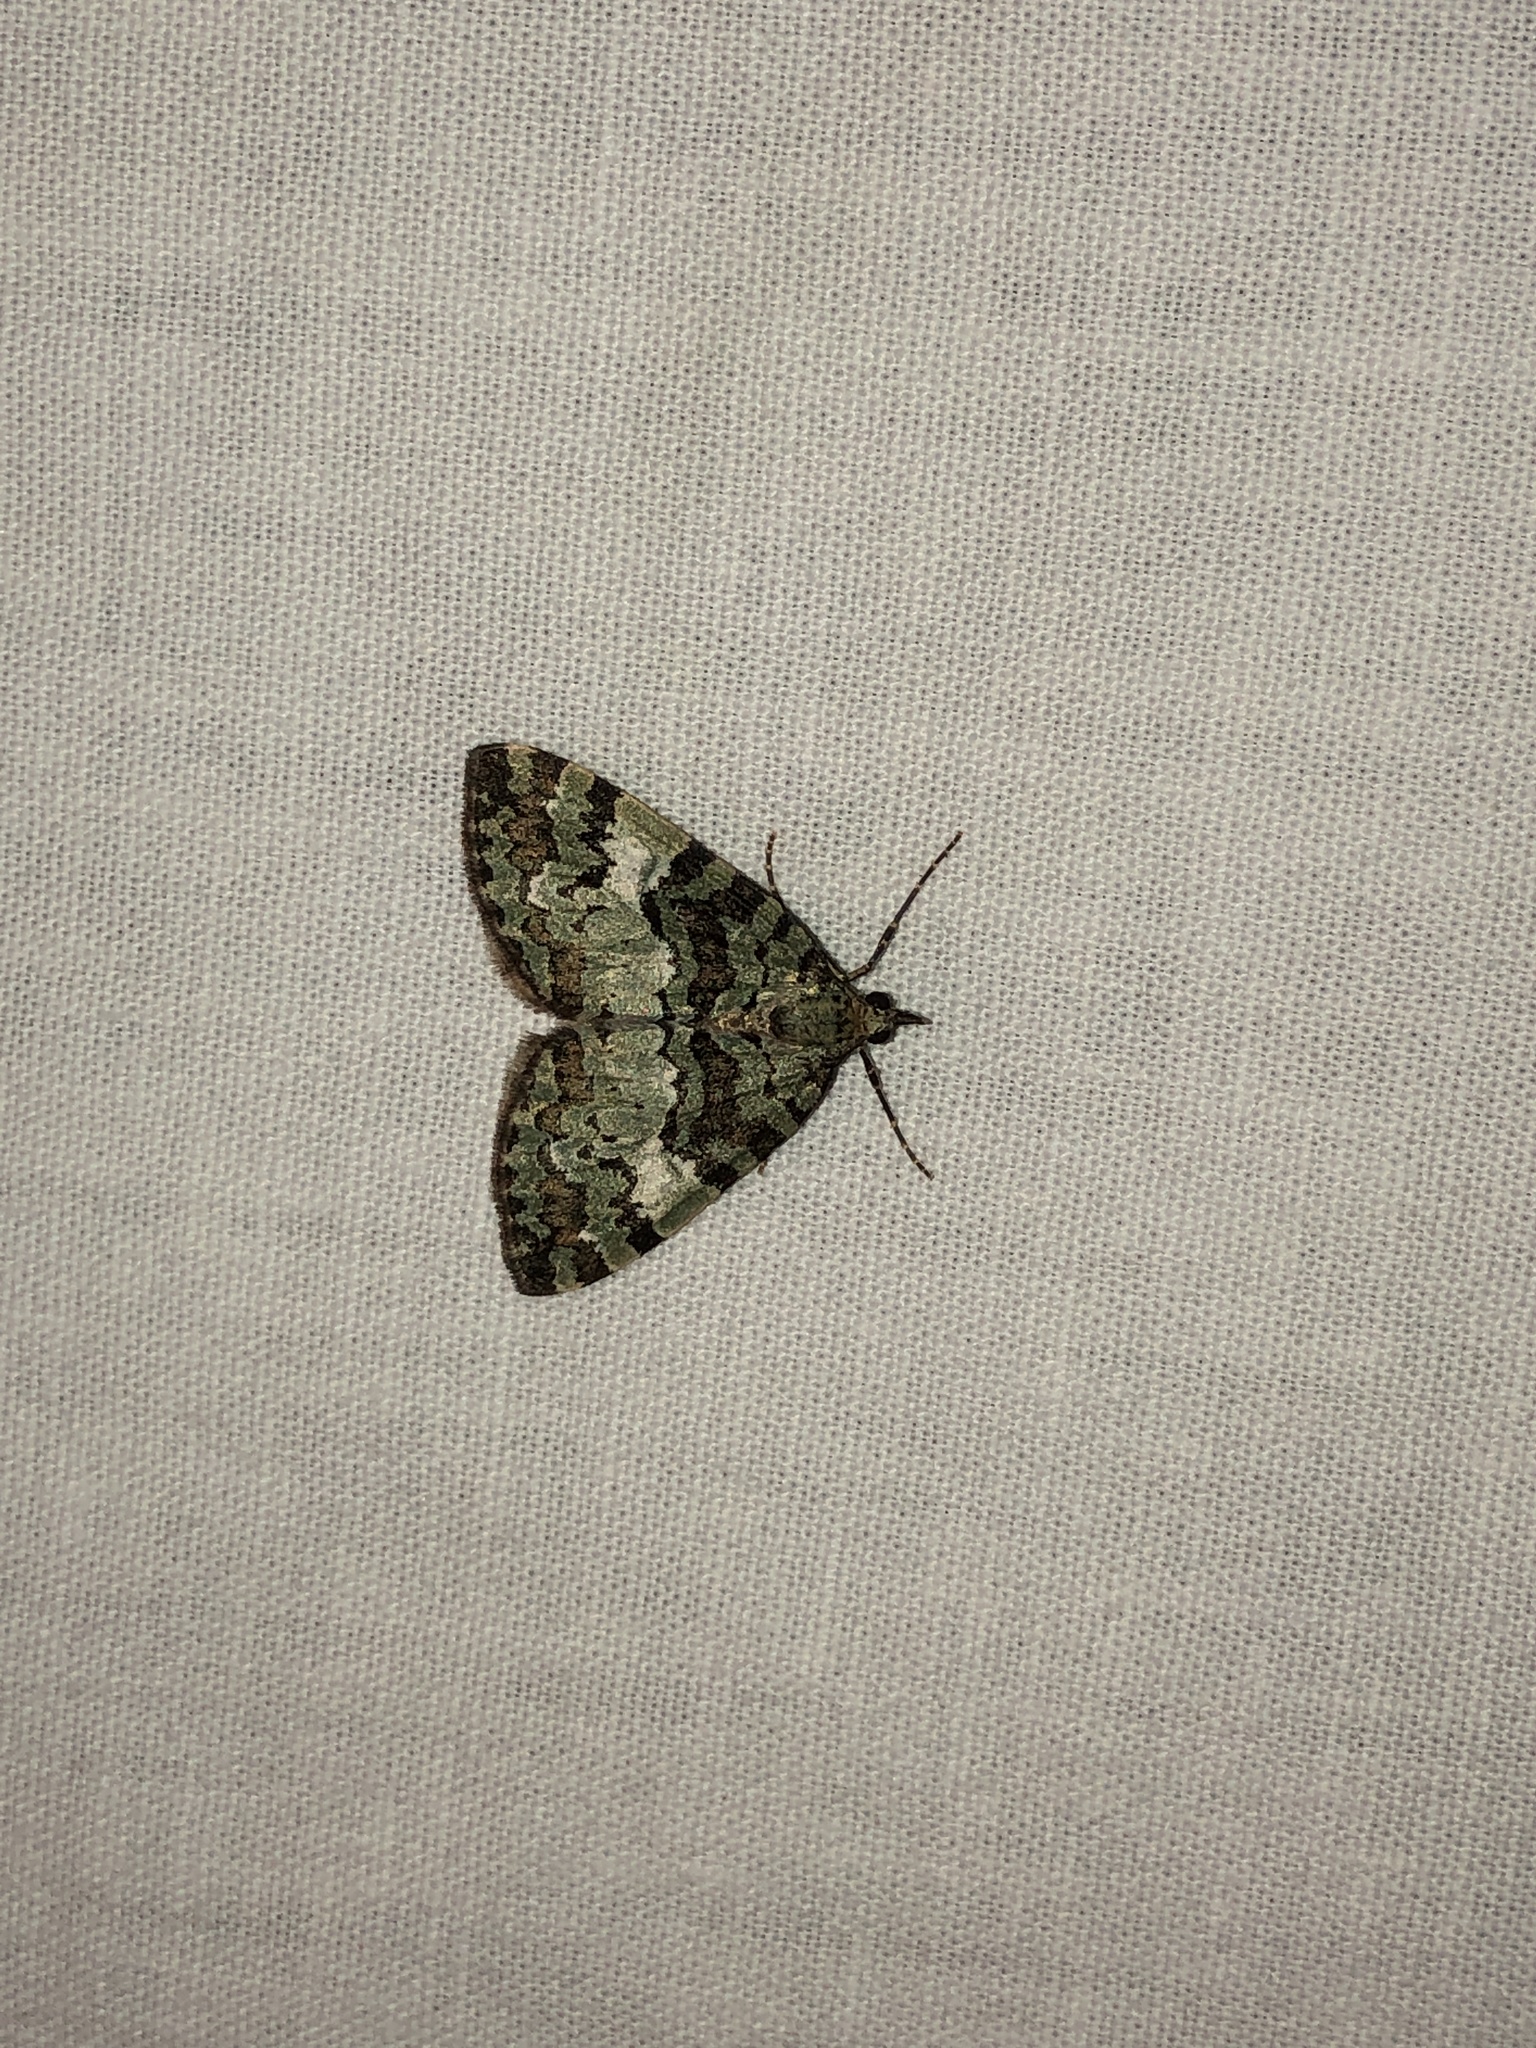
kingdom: Animalia
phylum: Arthropoda
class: Insecta
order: Lepidoptera
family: Geometridae
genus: Hydriomena
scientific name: Hydriomena speciosata
